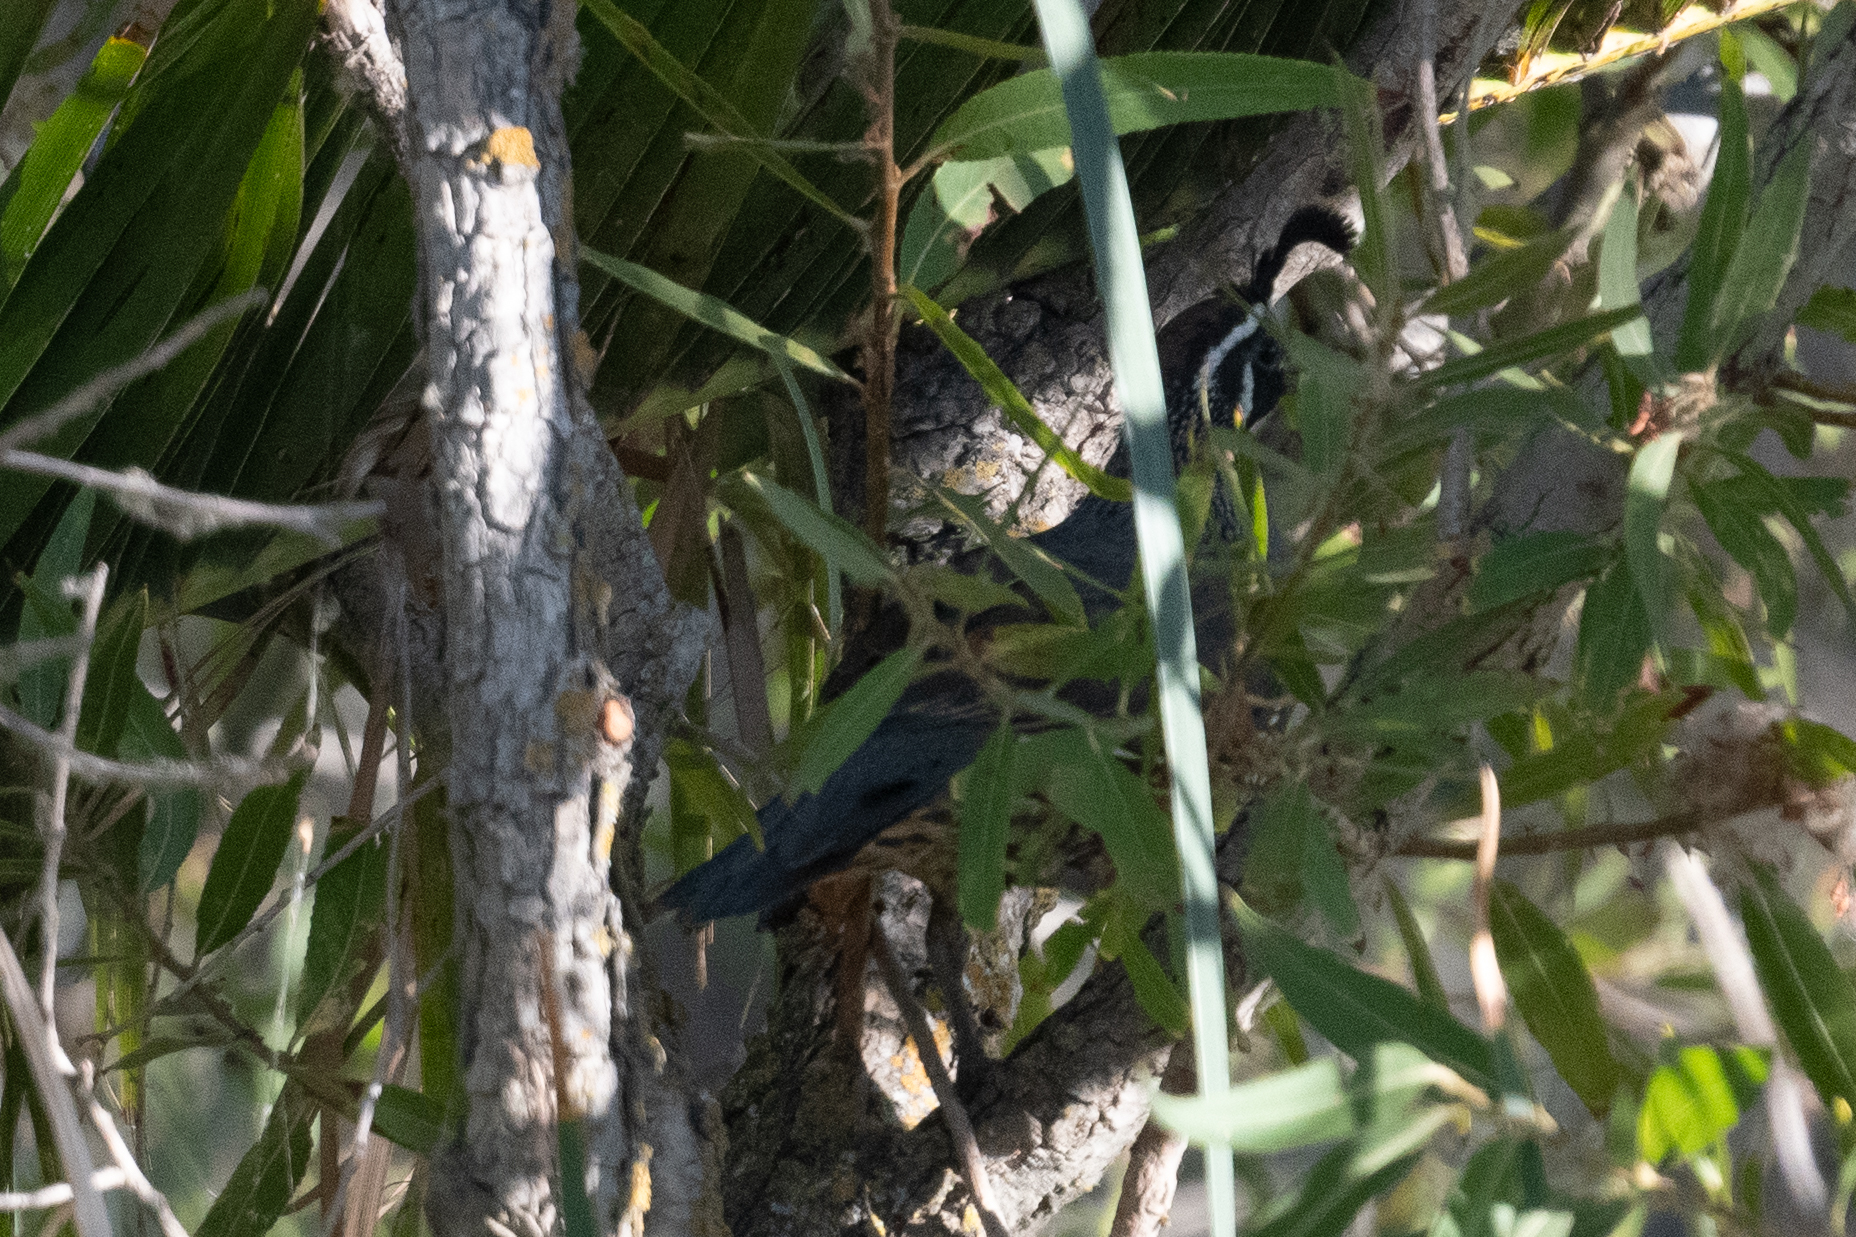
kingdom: Animalia
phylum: Chordata
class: Aves
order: Galliformes
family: Odontophoridae
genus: Callipepla
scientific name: Callipepla californica
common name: California quail
